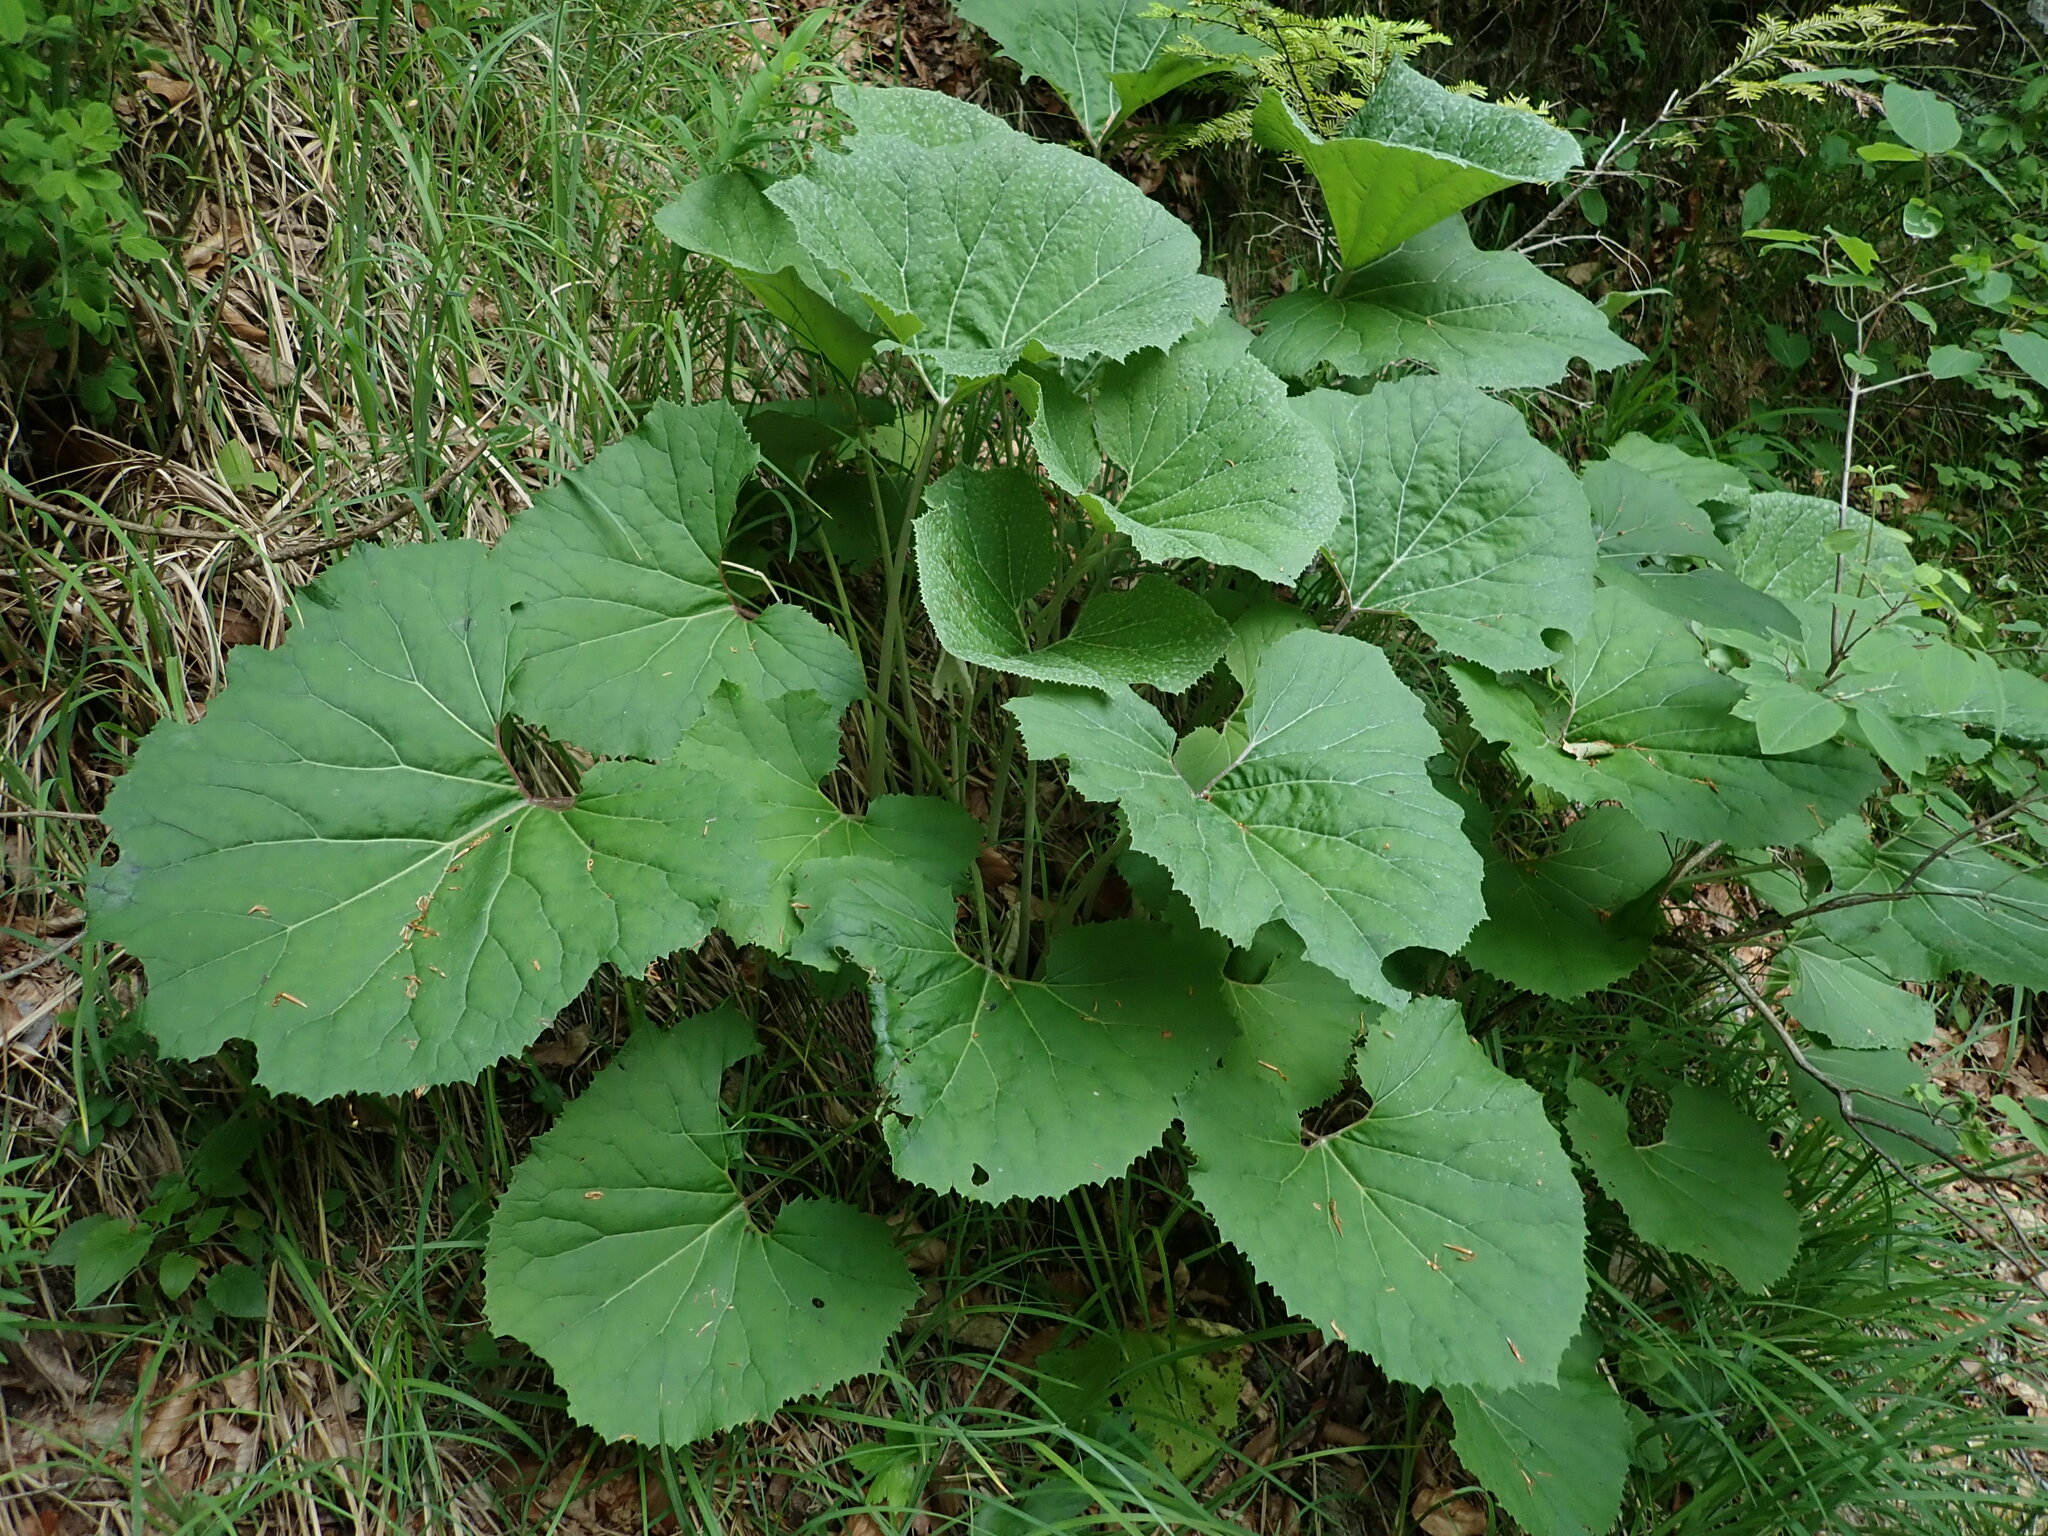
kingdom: Plantae
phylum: Tracheophyta
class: Magnoliopsida
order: Asterales
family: Asteraceae
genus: Petasites
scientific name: Petasites kablikianus
